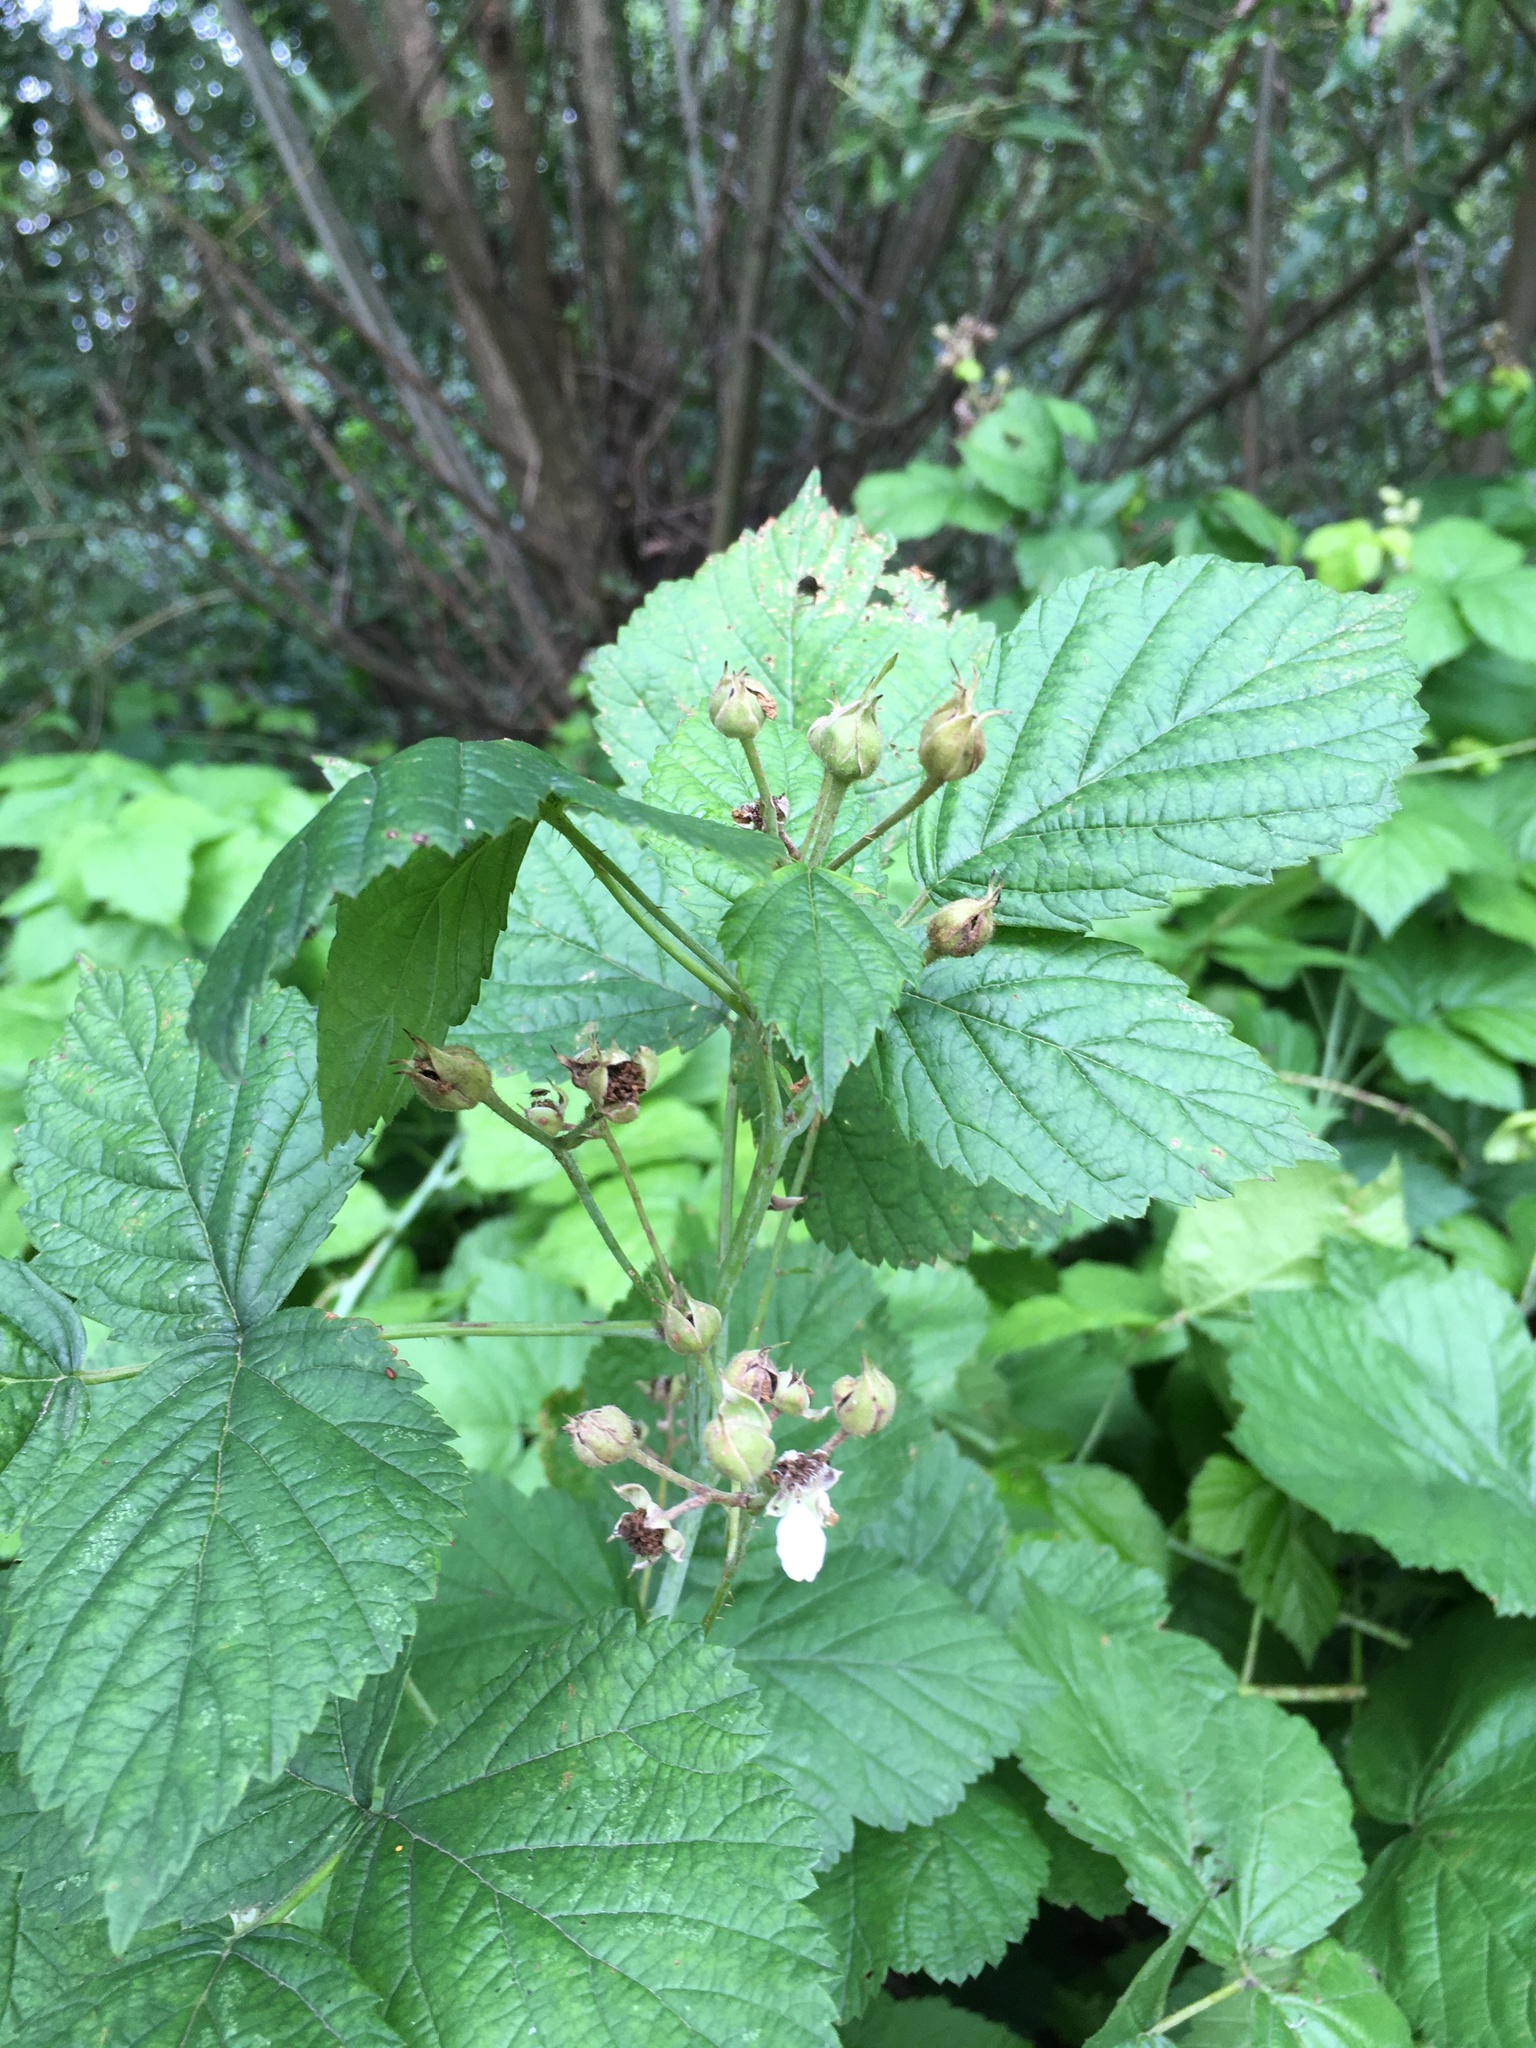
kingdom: Plantae
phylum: Tracheophyta
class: Magnoliopsida
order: Rosales
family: Rosaceae
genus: Rubus
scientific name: Rubus caesius
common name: Dewberry
